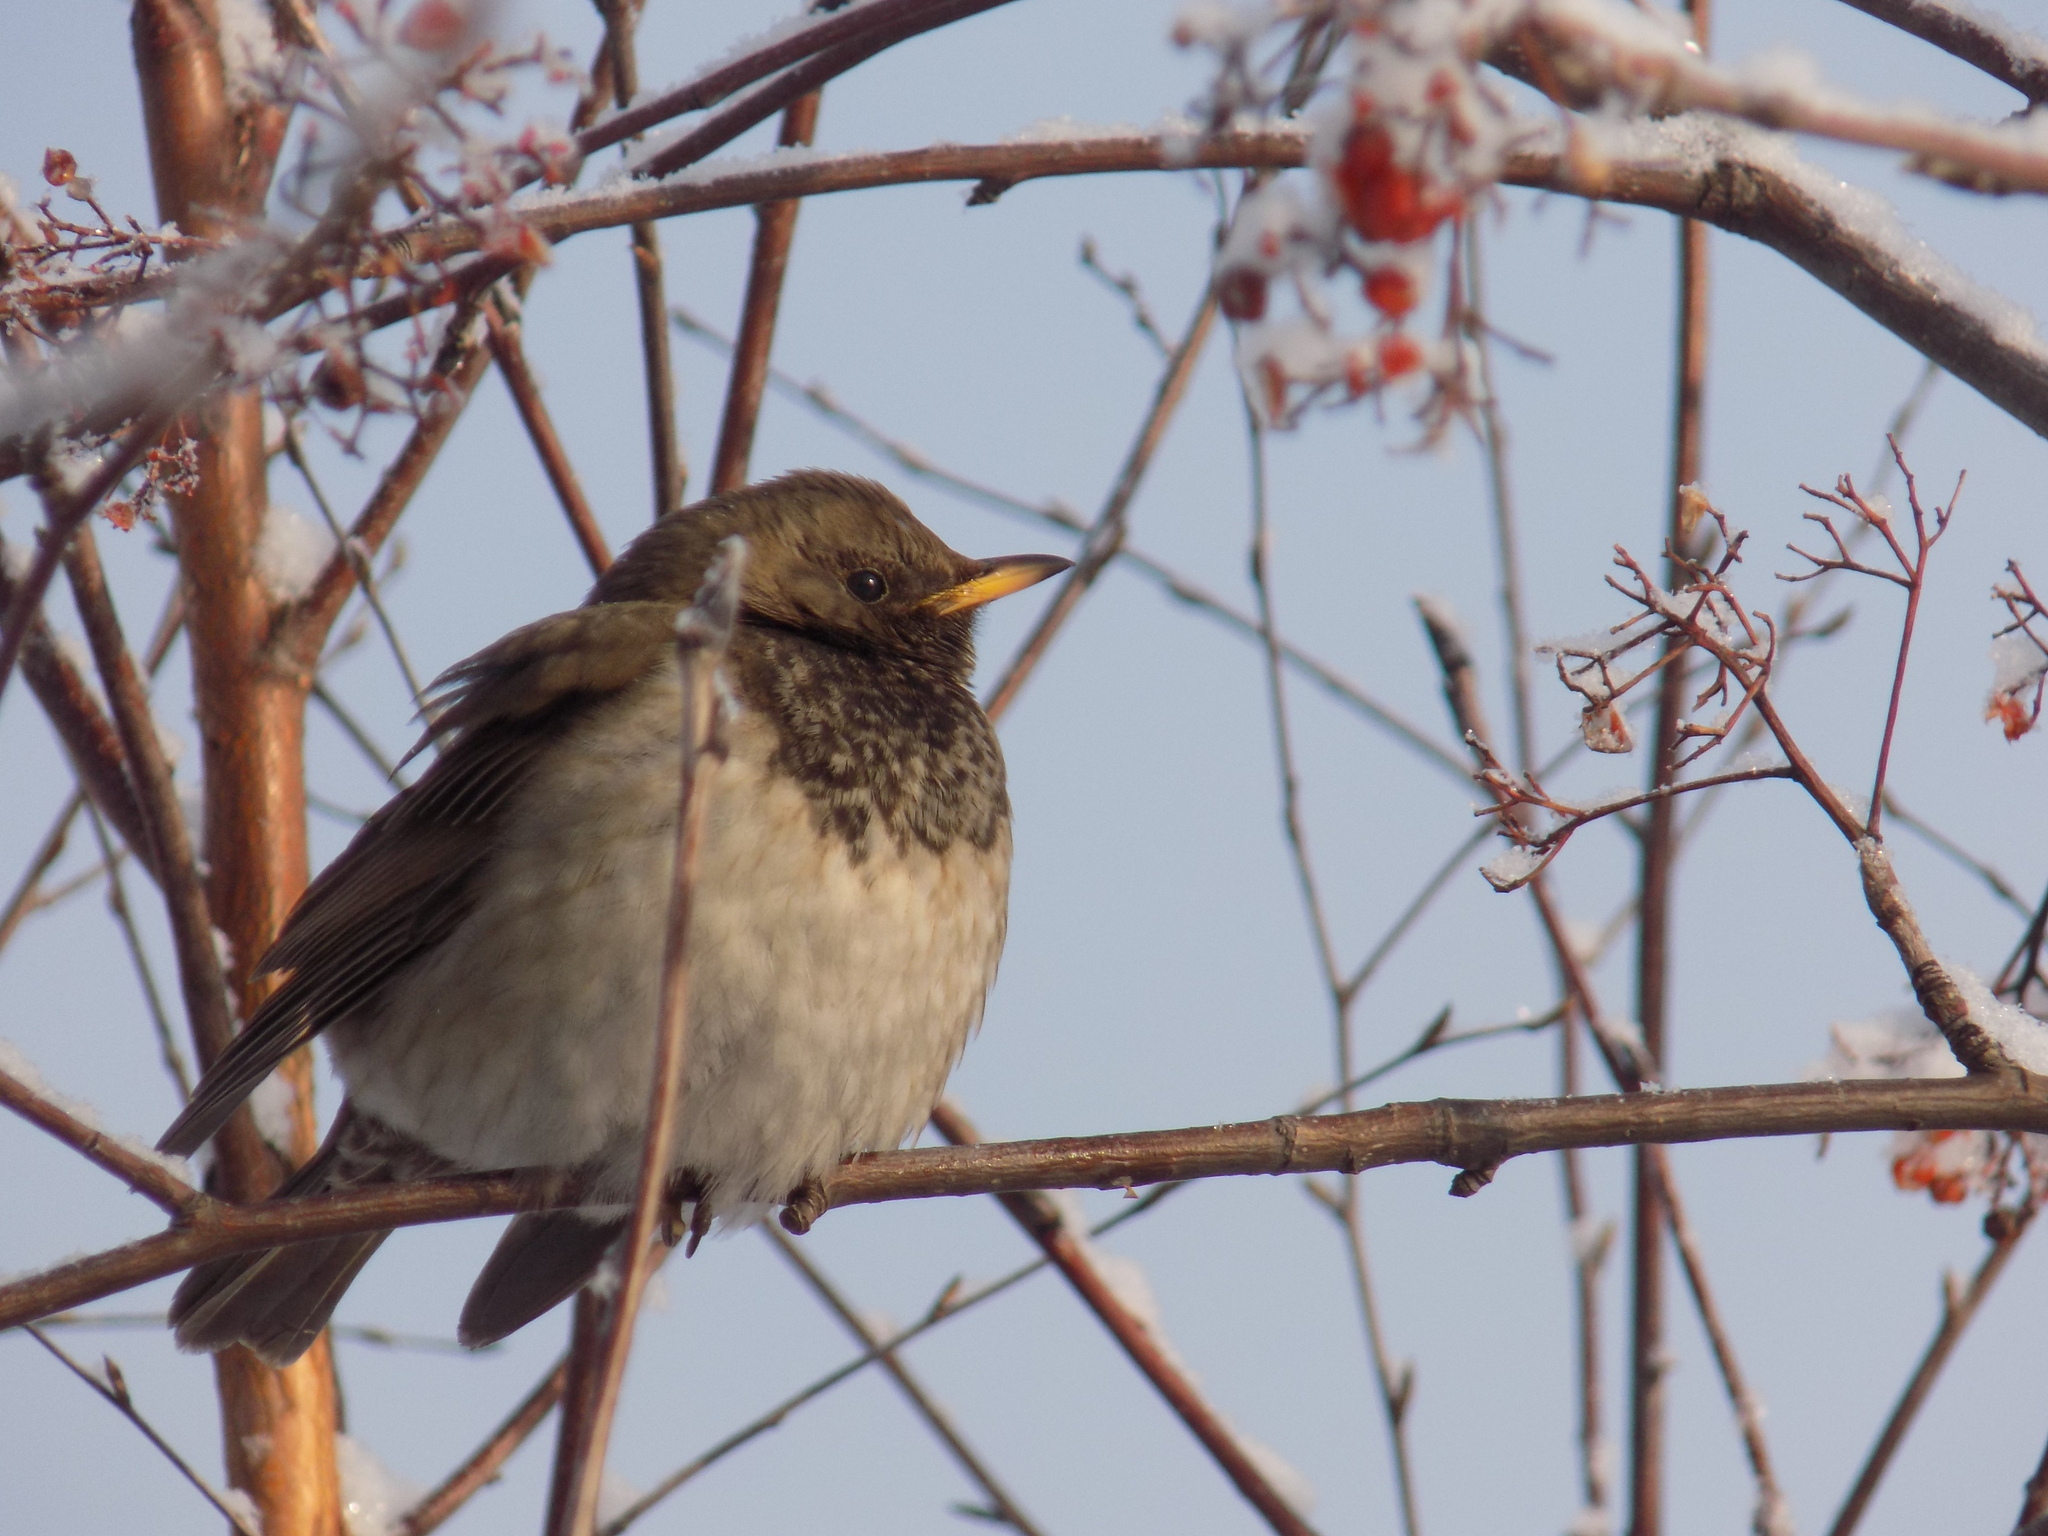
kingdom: Animalia
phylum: Chordata
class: Aves
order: Passeriformes
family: Turdidae
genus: Turdus
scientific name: Turdus atrogularis
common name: Black-throated thrush
